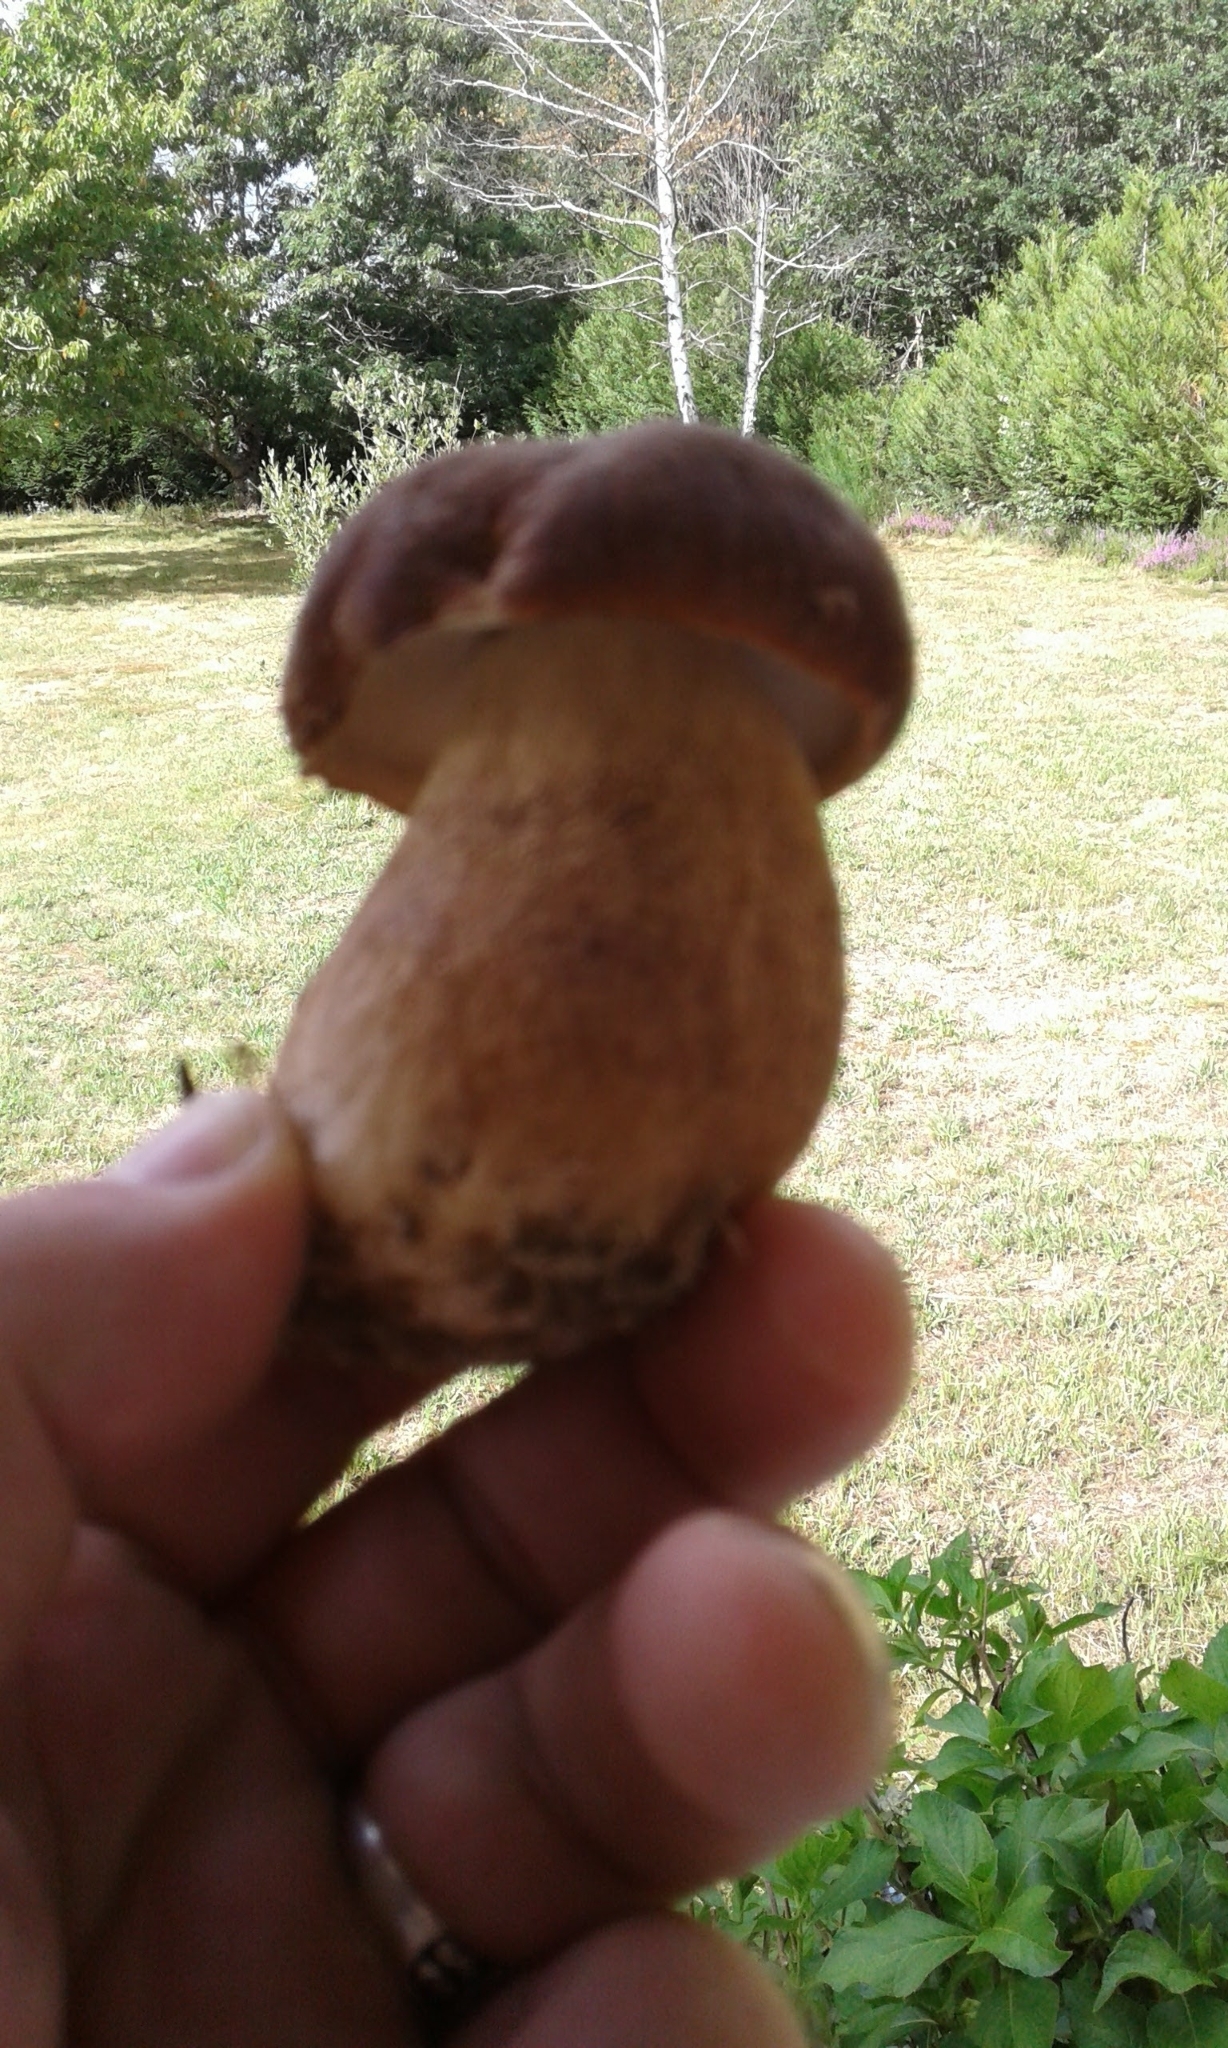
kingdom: Fungi
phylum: Basidiomycota
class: Agaricomycetes
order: Boletales
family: Boletaceae
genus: Boletus
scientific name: Boletus reticulatus
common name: Summer bolete
